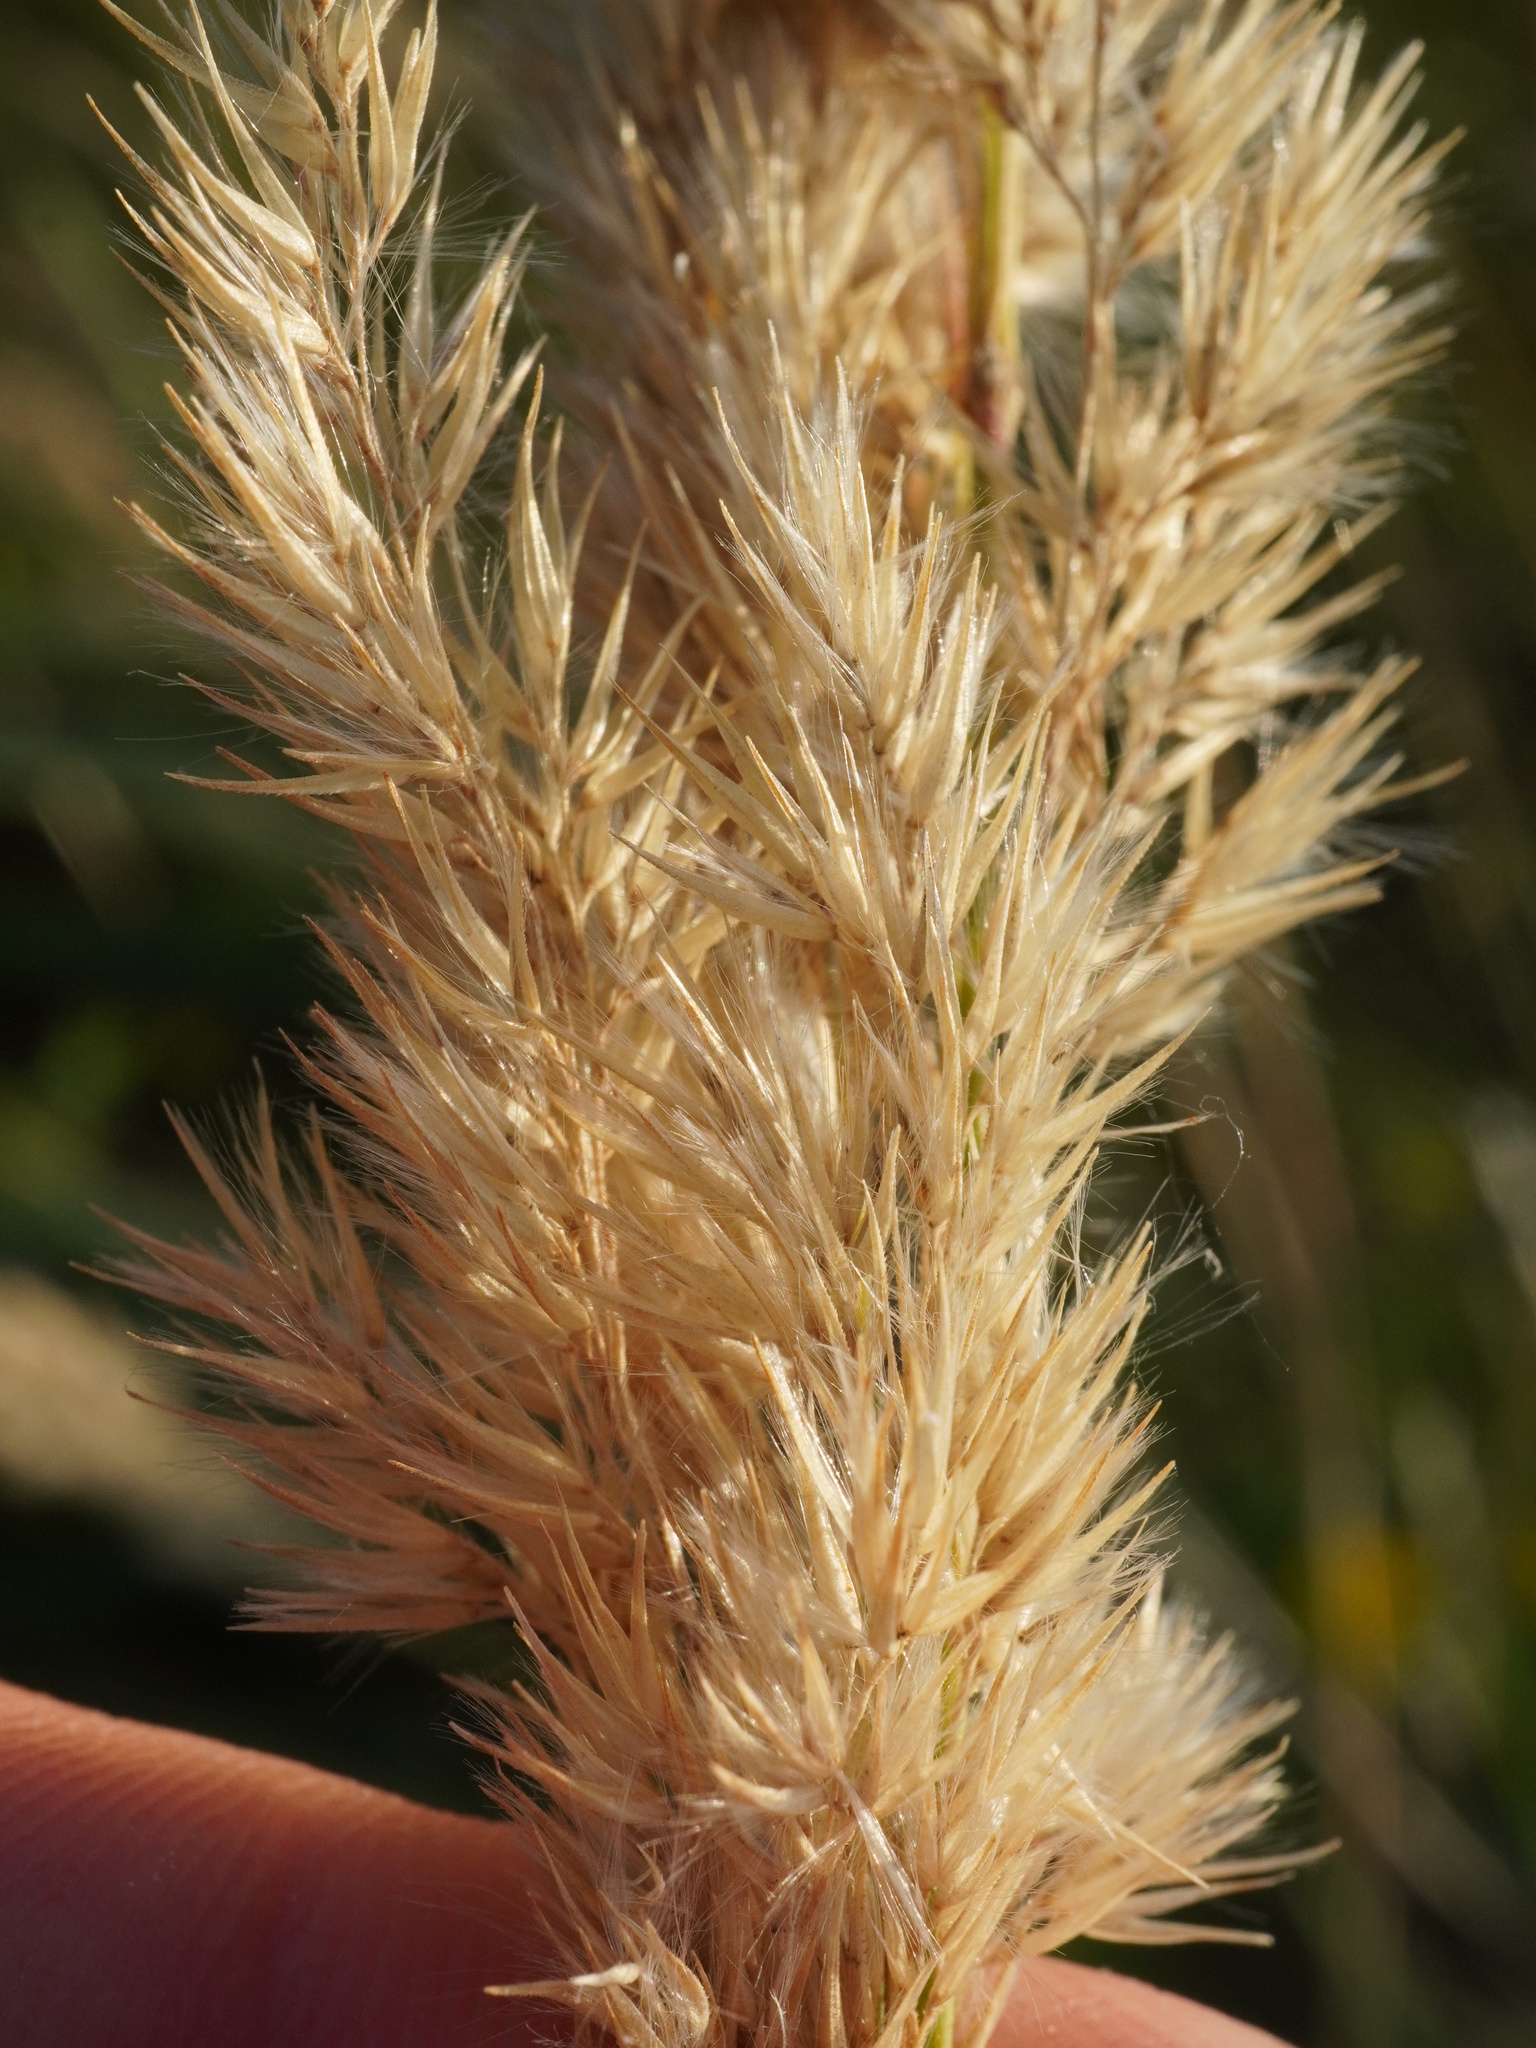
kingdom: Plantae
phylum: Tracheophyta
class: Liliopsida
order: Poales
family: Poaceae
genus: Calamagrostis
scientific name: Calamagrostis epigejos
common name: Wood small-reed
